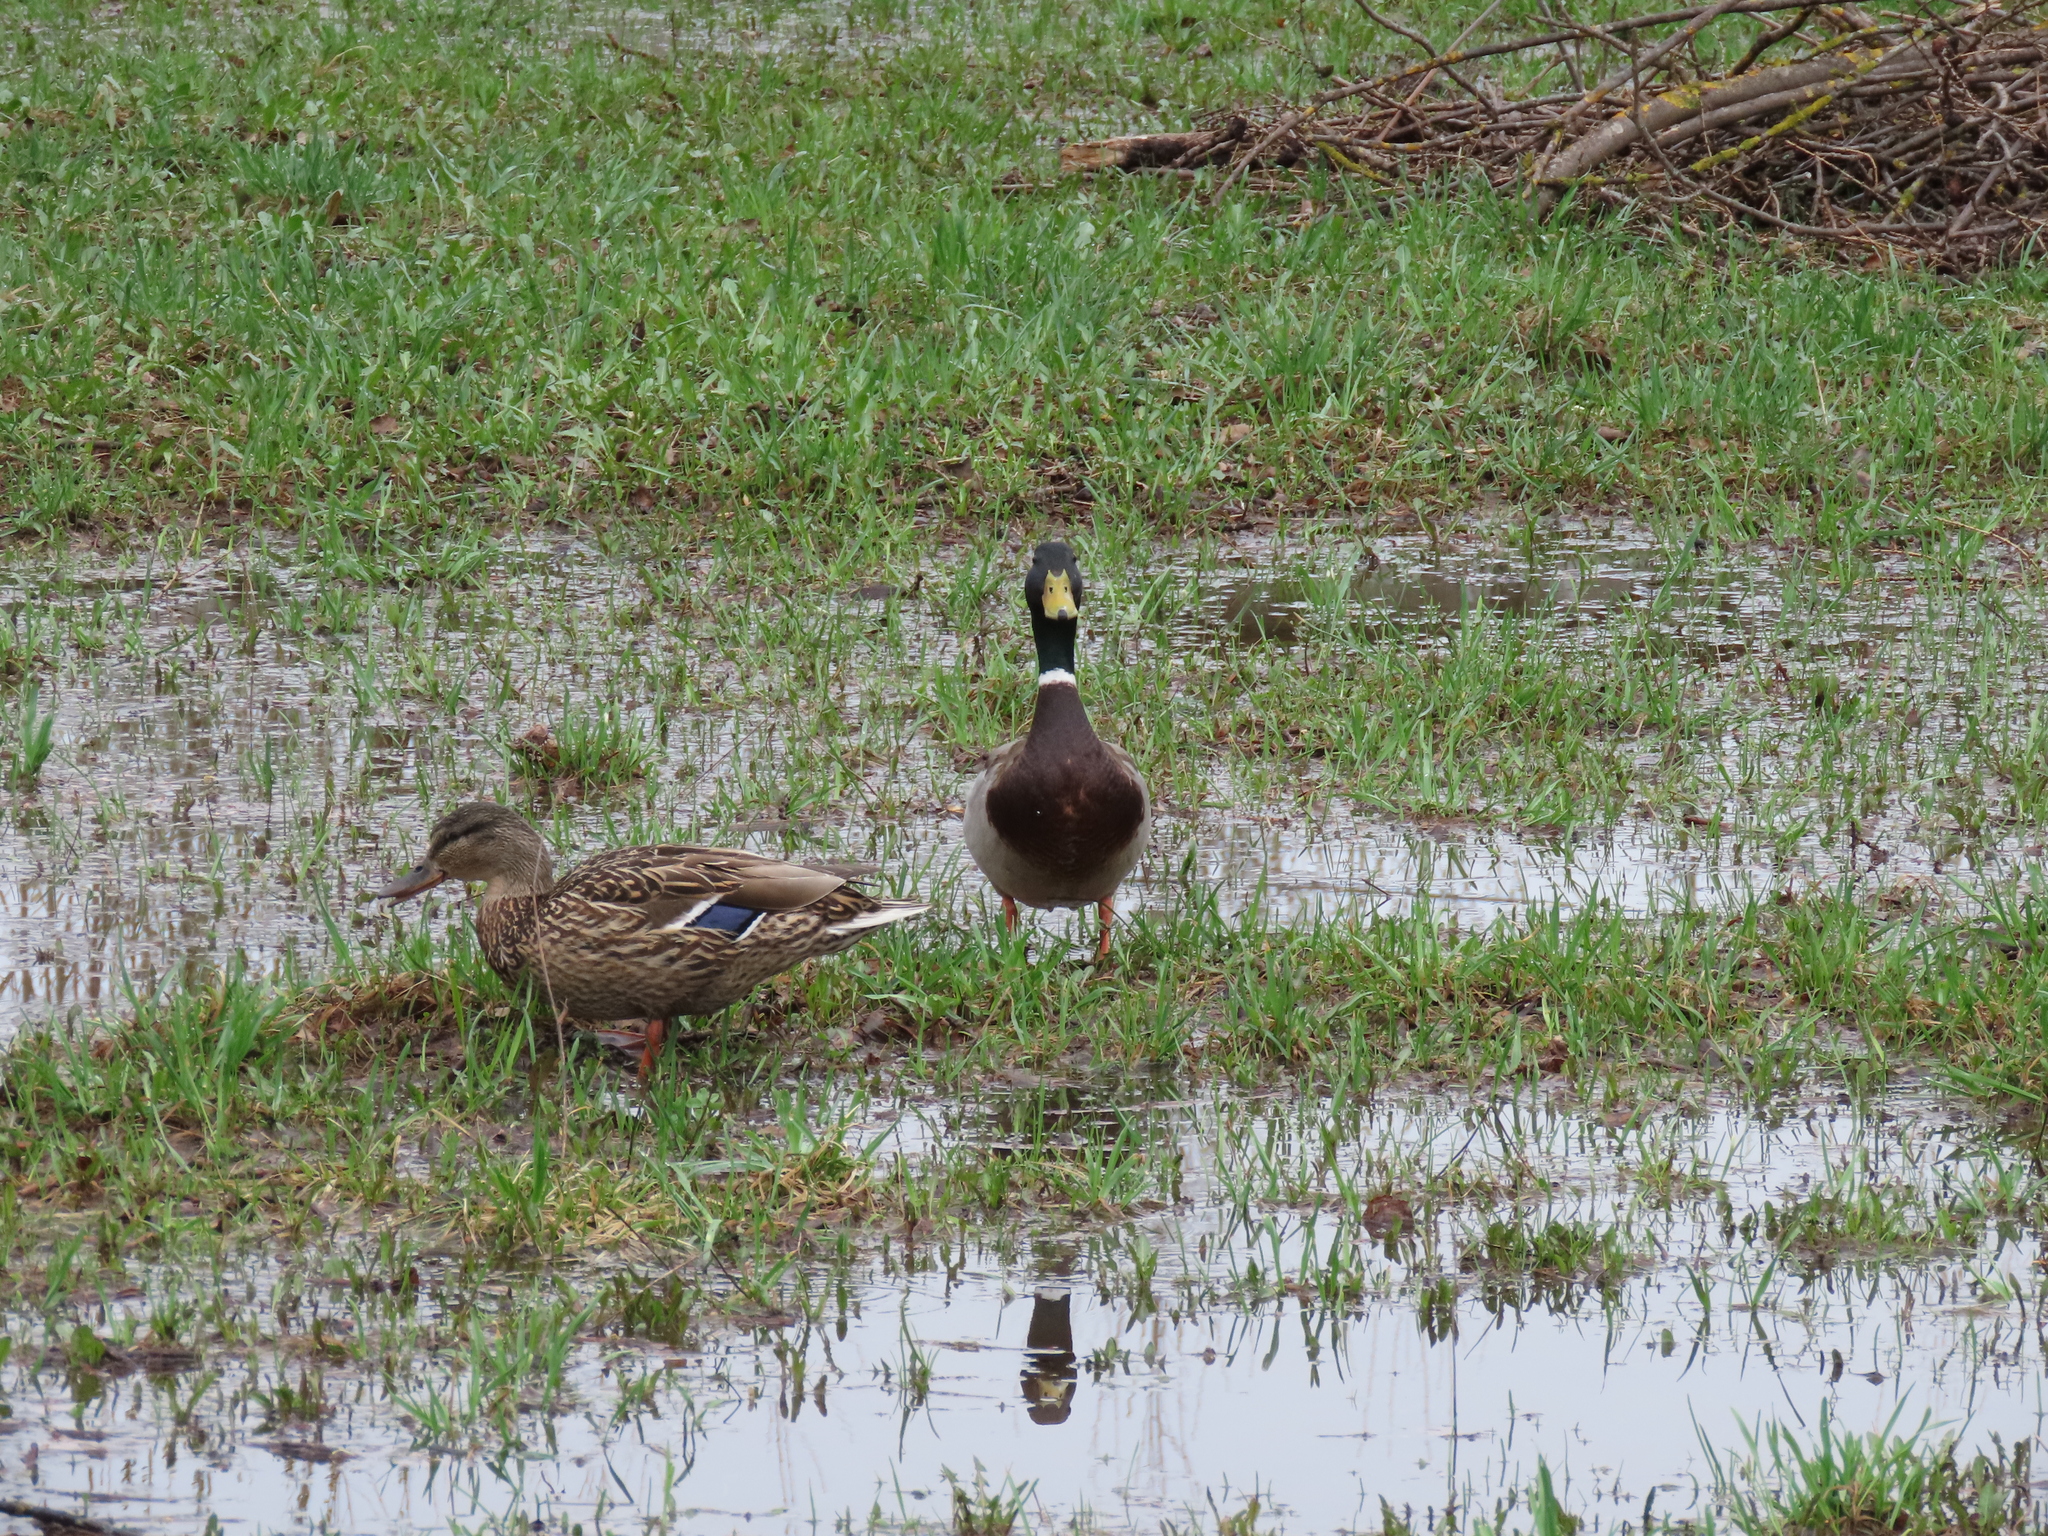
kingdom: Animalia
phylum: Chordata
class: Aves
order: Anseriformes
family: Anatidae
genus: Anas
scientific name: Anas platyrhynchos
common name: Mallard
